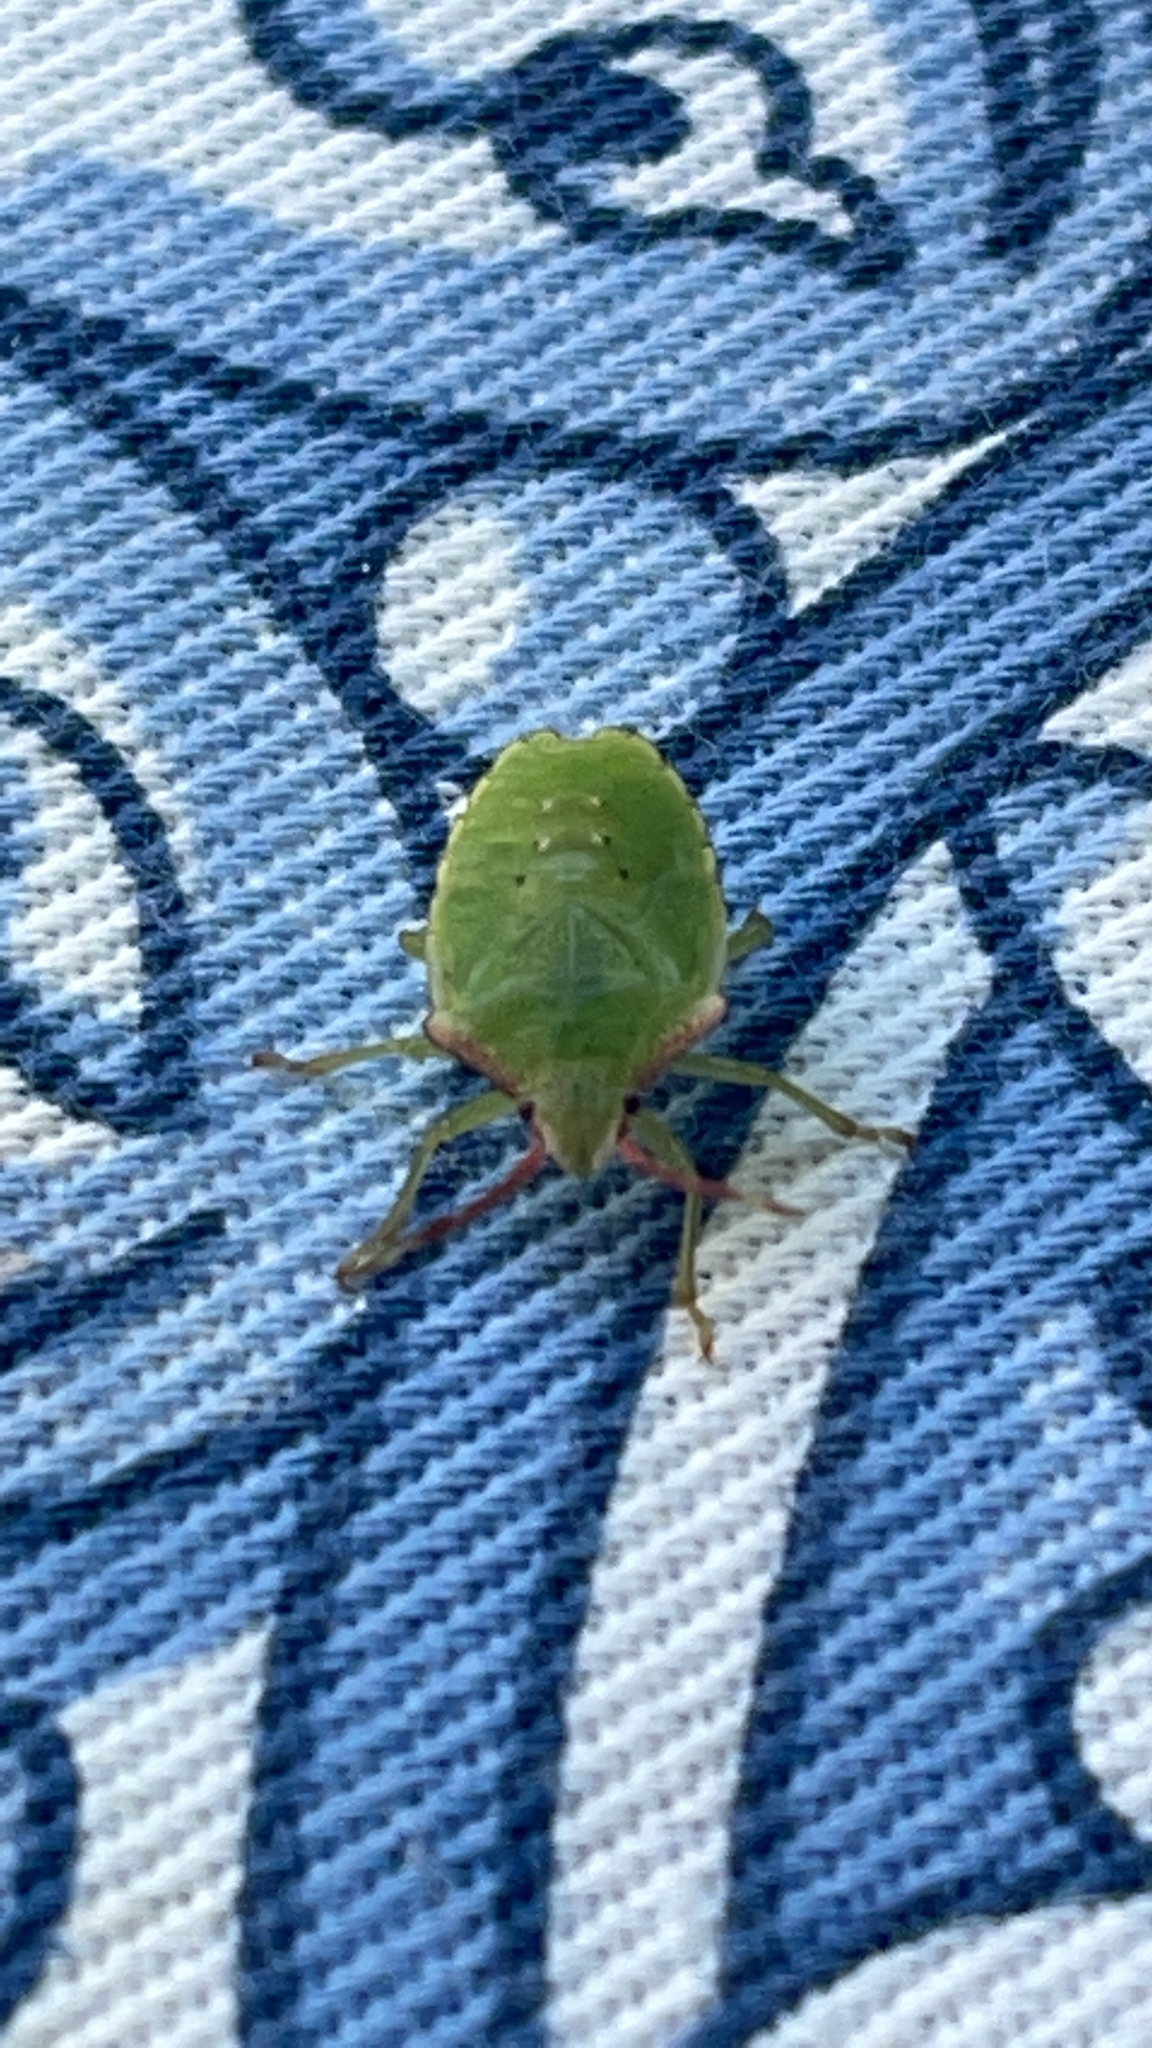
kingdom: Animalia
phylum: Arthropoda
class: Insecta
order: Hemiptera
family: Acanthosomatidae
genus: Acanthosoma
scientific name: Acanthosoma haemorrhoidale
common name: Hawthorn shieldbug
